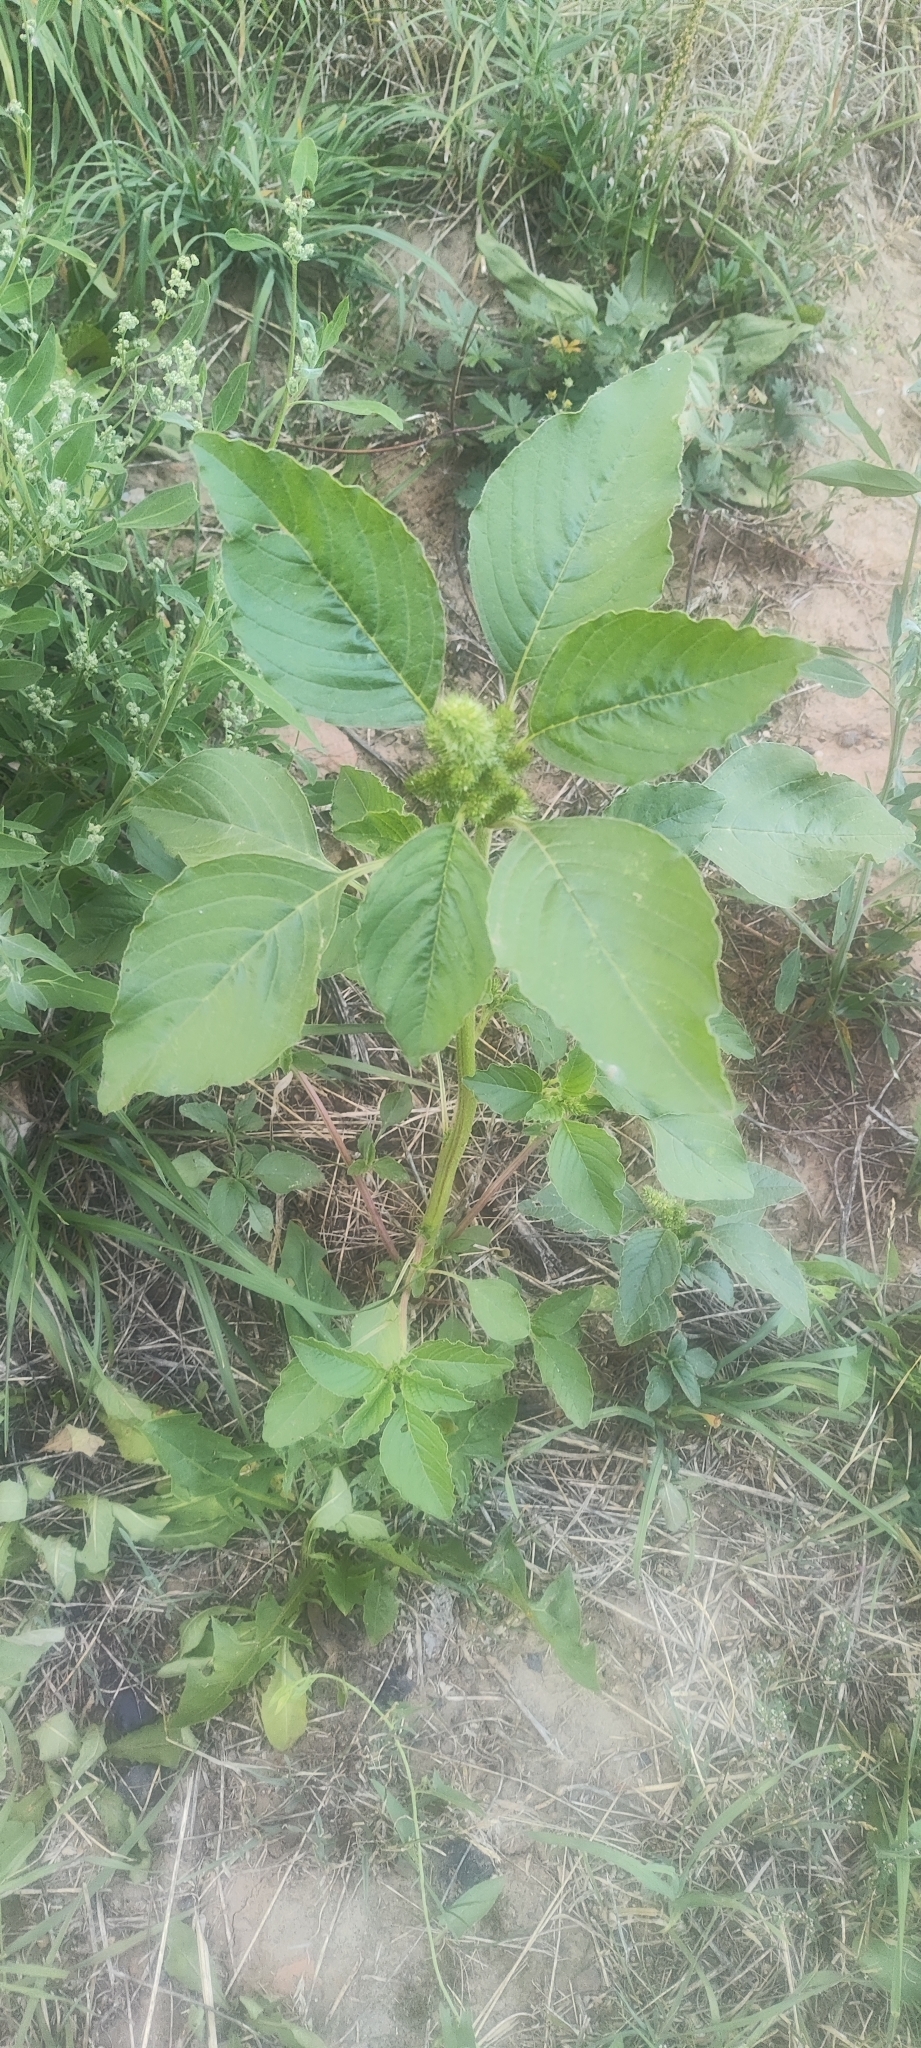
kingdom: Plantae
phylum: Tracheophyta
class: Magnoliopsida
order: Caryophyllales
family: Amaranthaceae
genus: Amaranthus
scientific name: Amaranthus retroflexus
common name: Redroot amaranth
